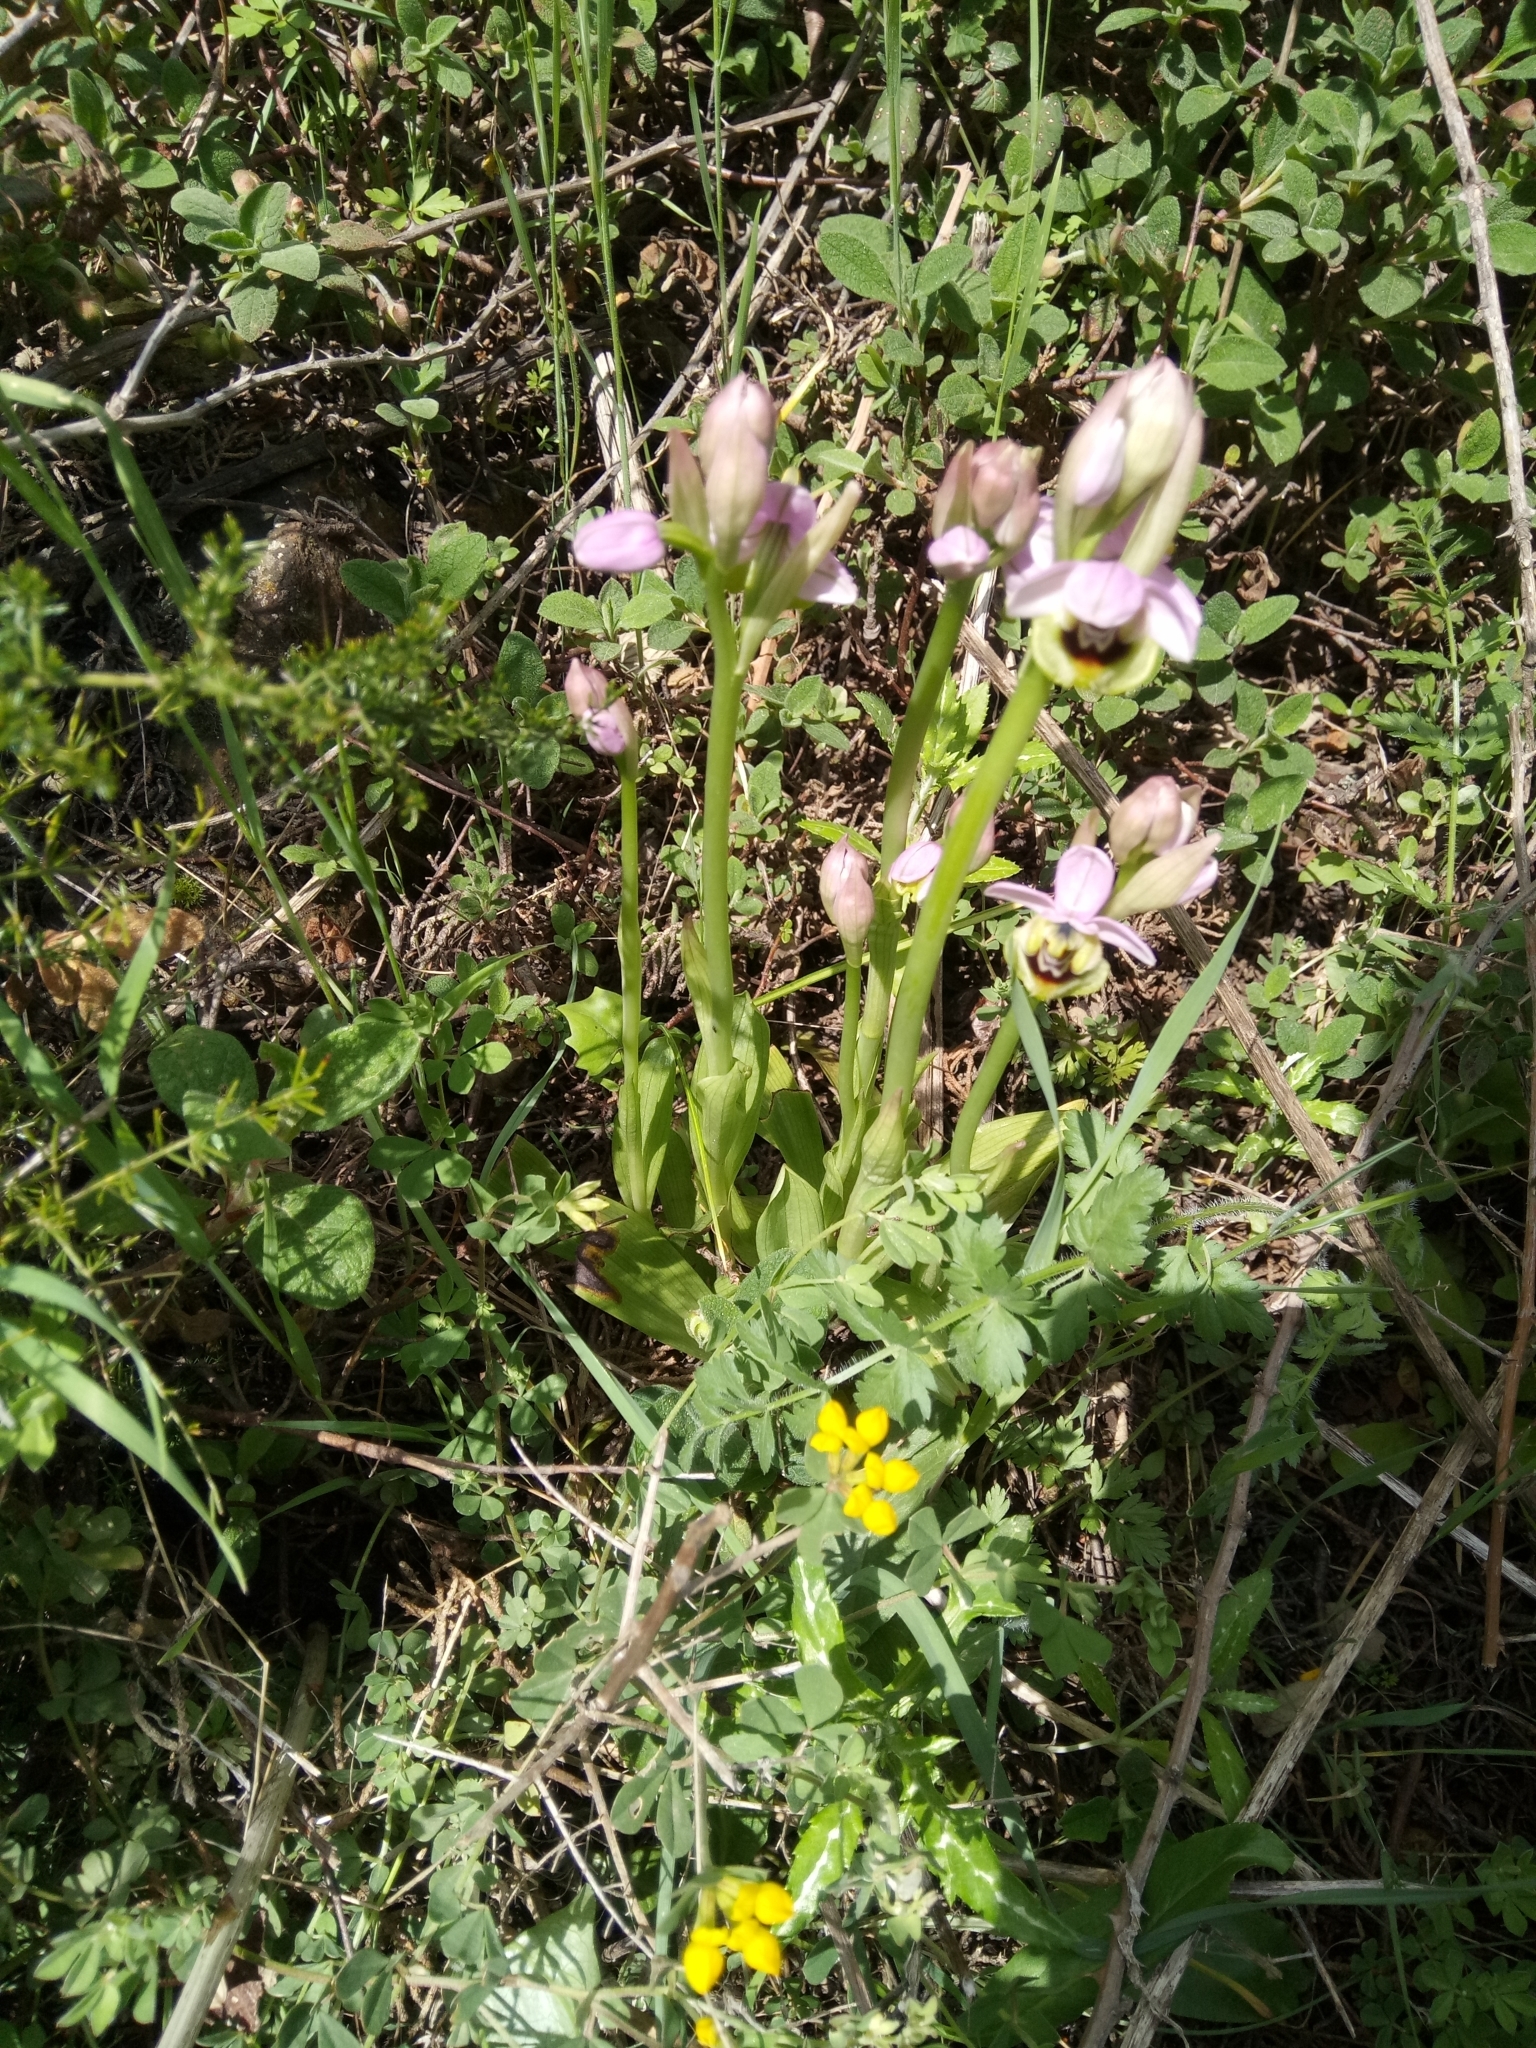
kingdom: Plantae
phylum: Tracheophyta
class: Liliopsida
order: Asparagales
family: Orchidaceae
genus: Ophrys
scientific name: Ophrys tenthredinifera
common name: Sawfly orchid
